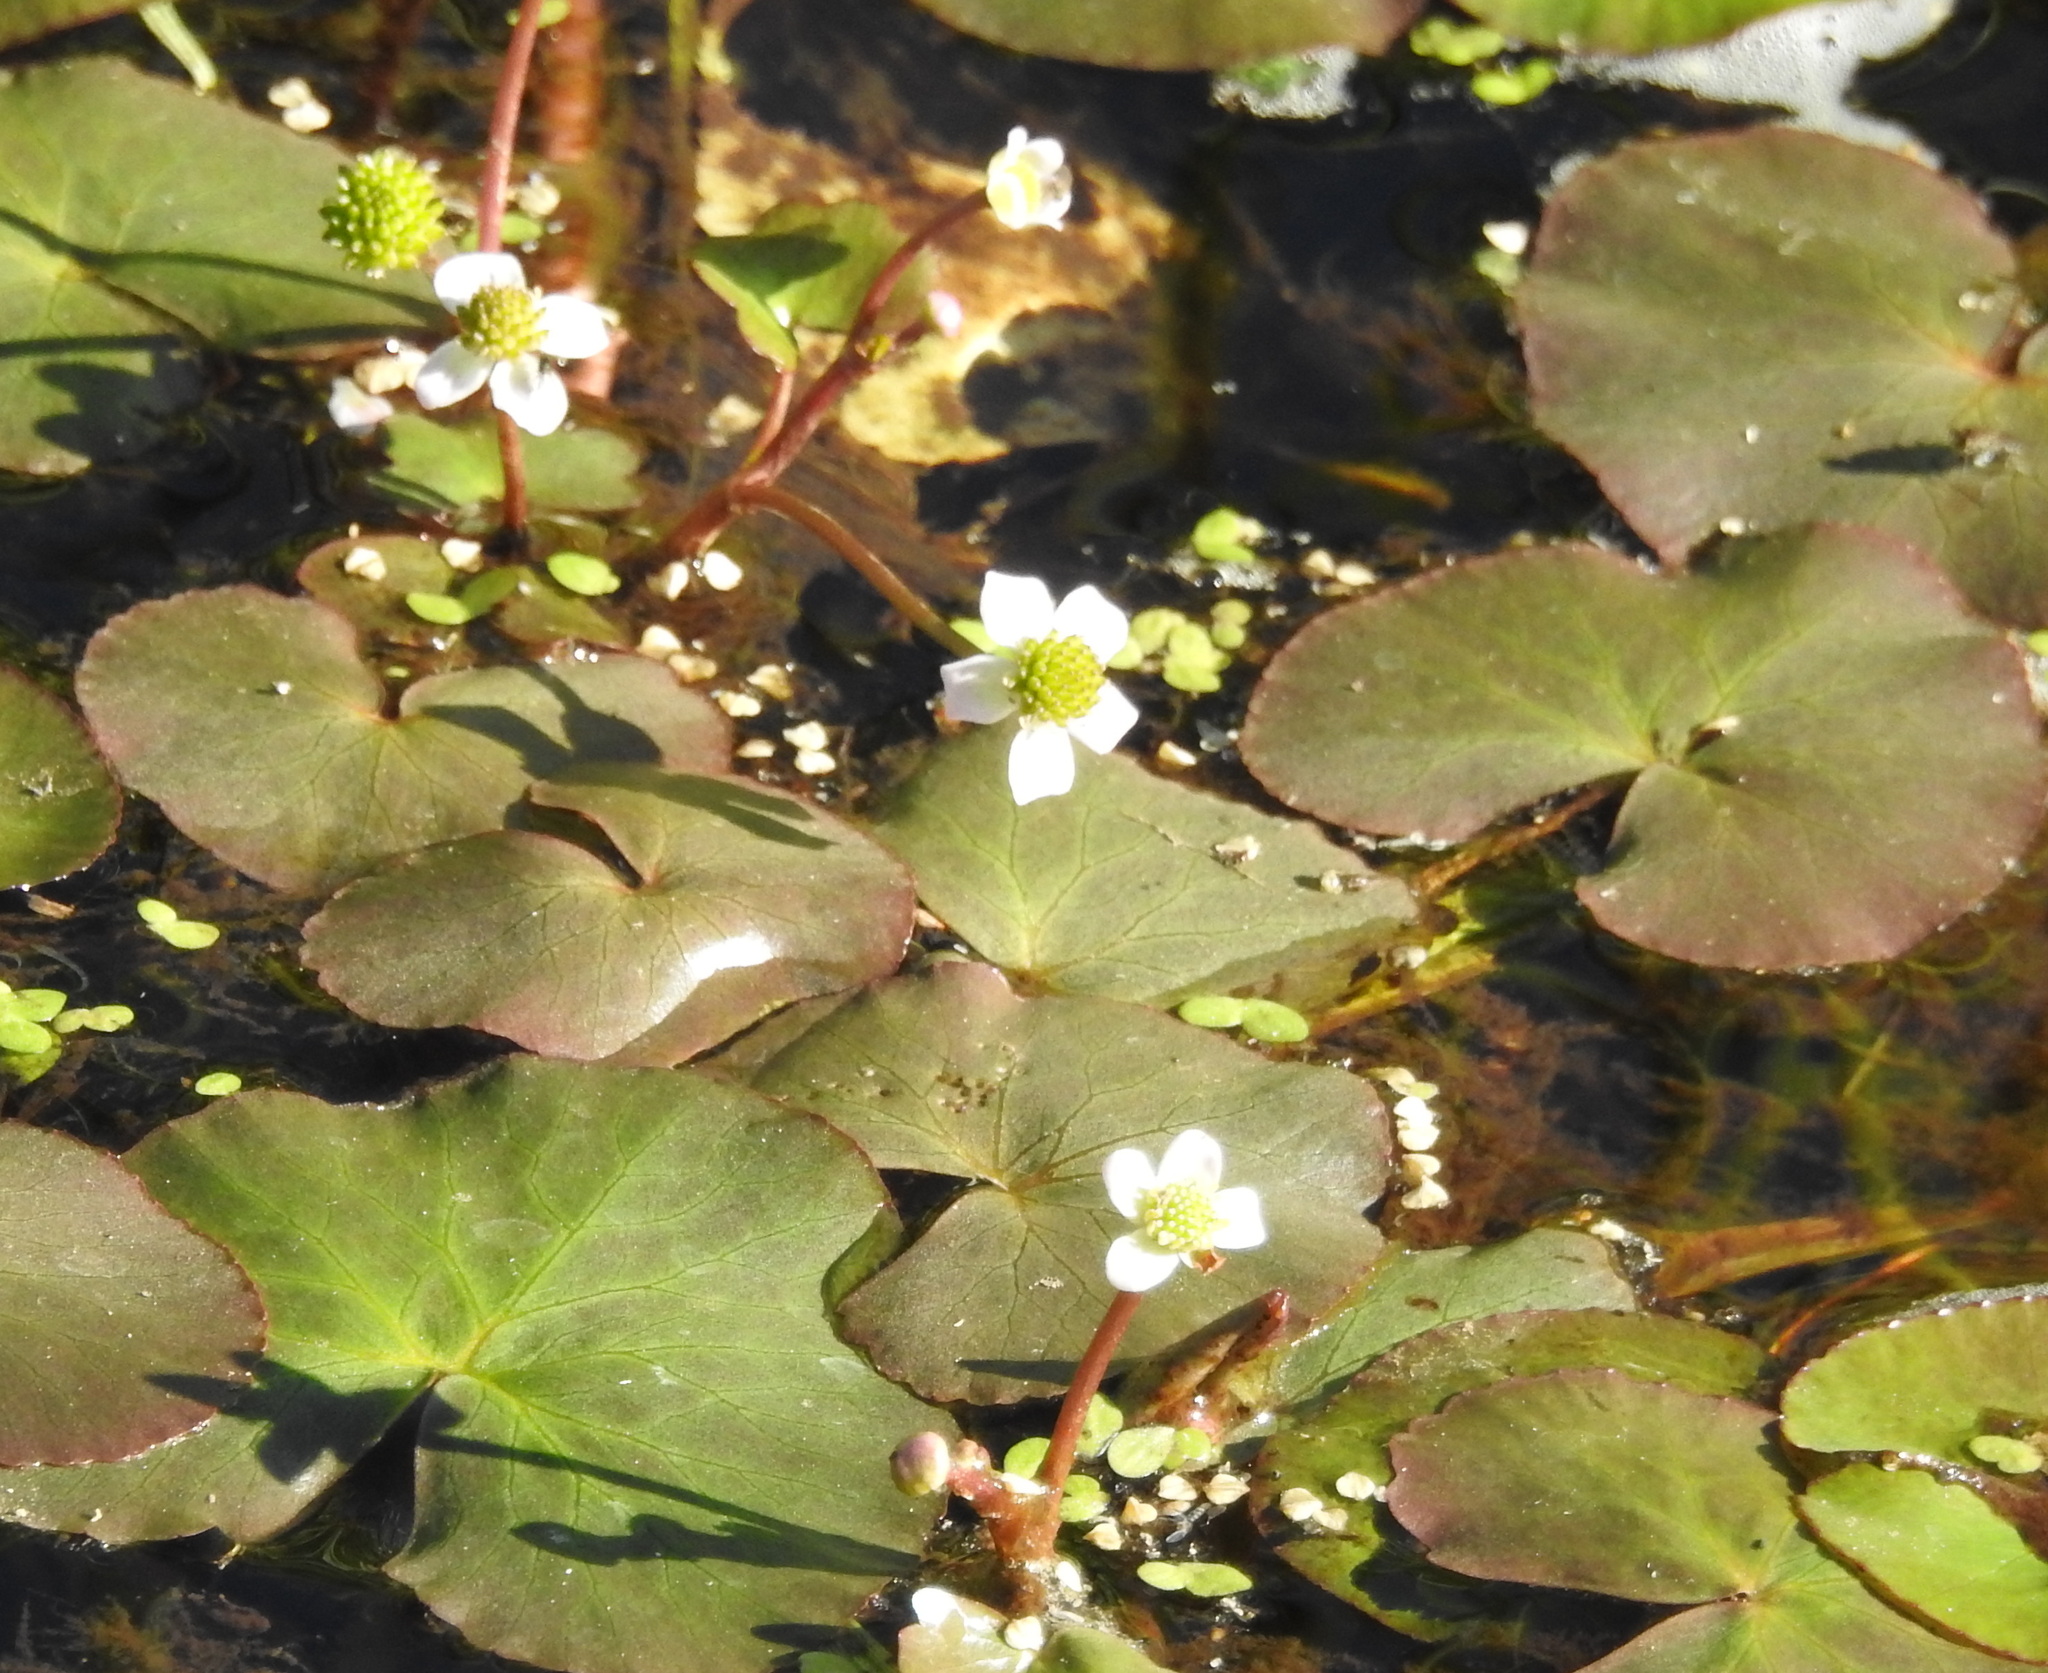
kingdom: Plantae
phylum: Tracheophyta
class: Magnoliopsida
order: Ranunculales
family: Ranunculaceae
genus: Caltha
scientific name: Caltha natans
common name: Floating marsh marigold
